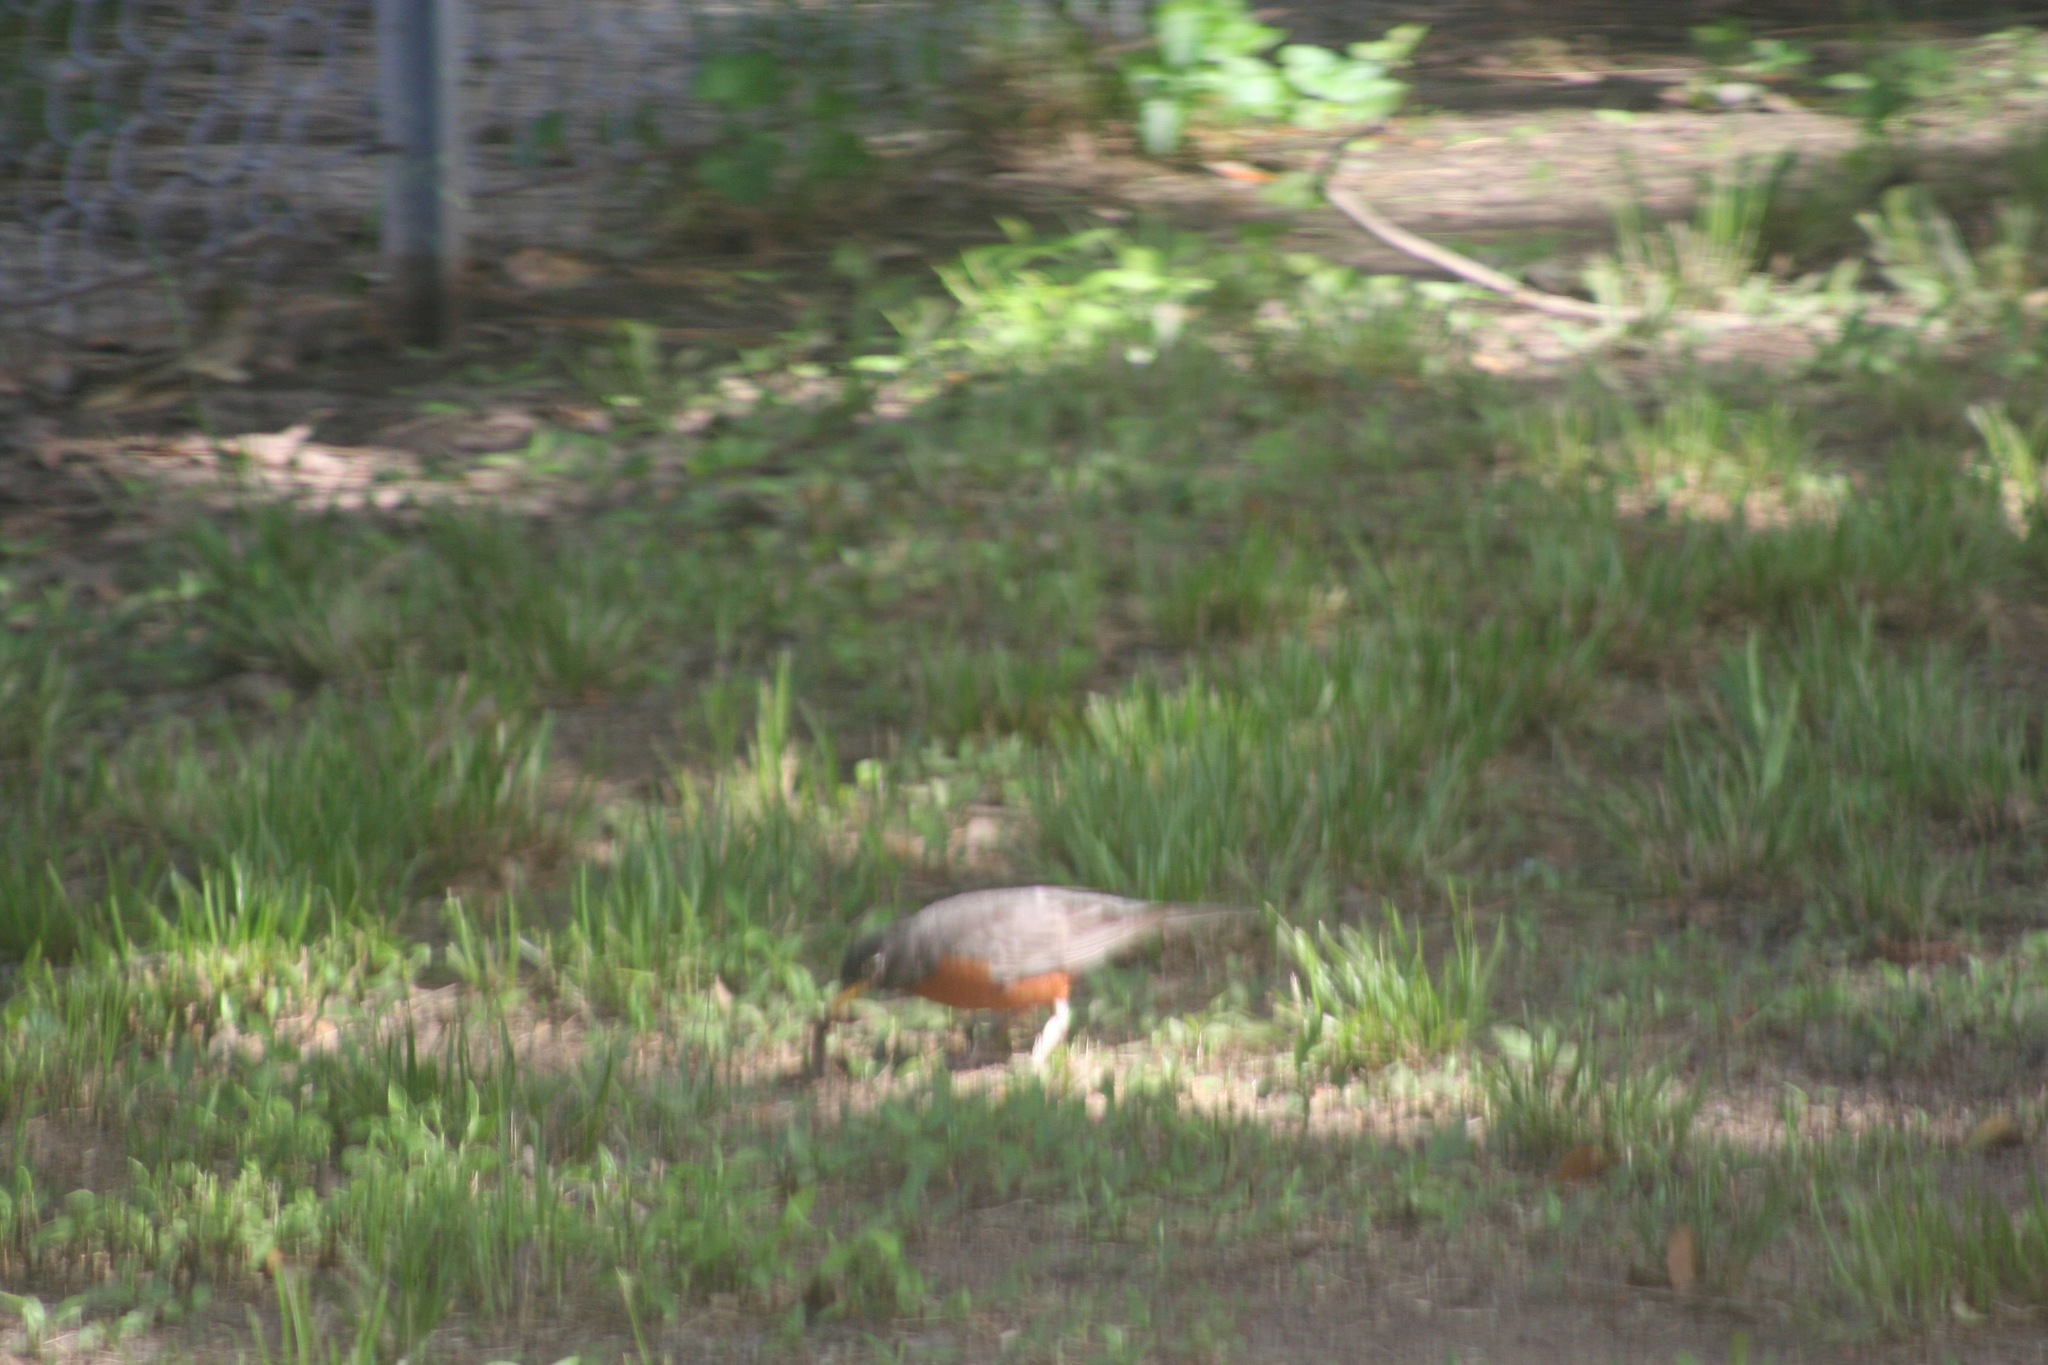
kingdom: Animalia
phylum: Chordata
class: Aves
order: Passeriformes
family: Turdidae
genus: Turdus
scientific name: Turdus migratorius
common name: American robin
